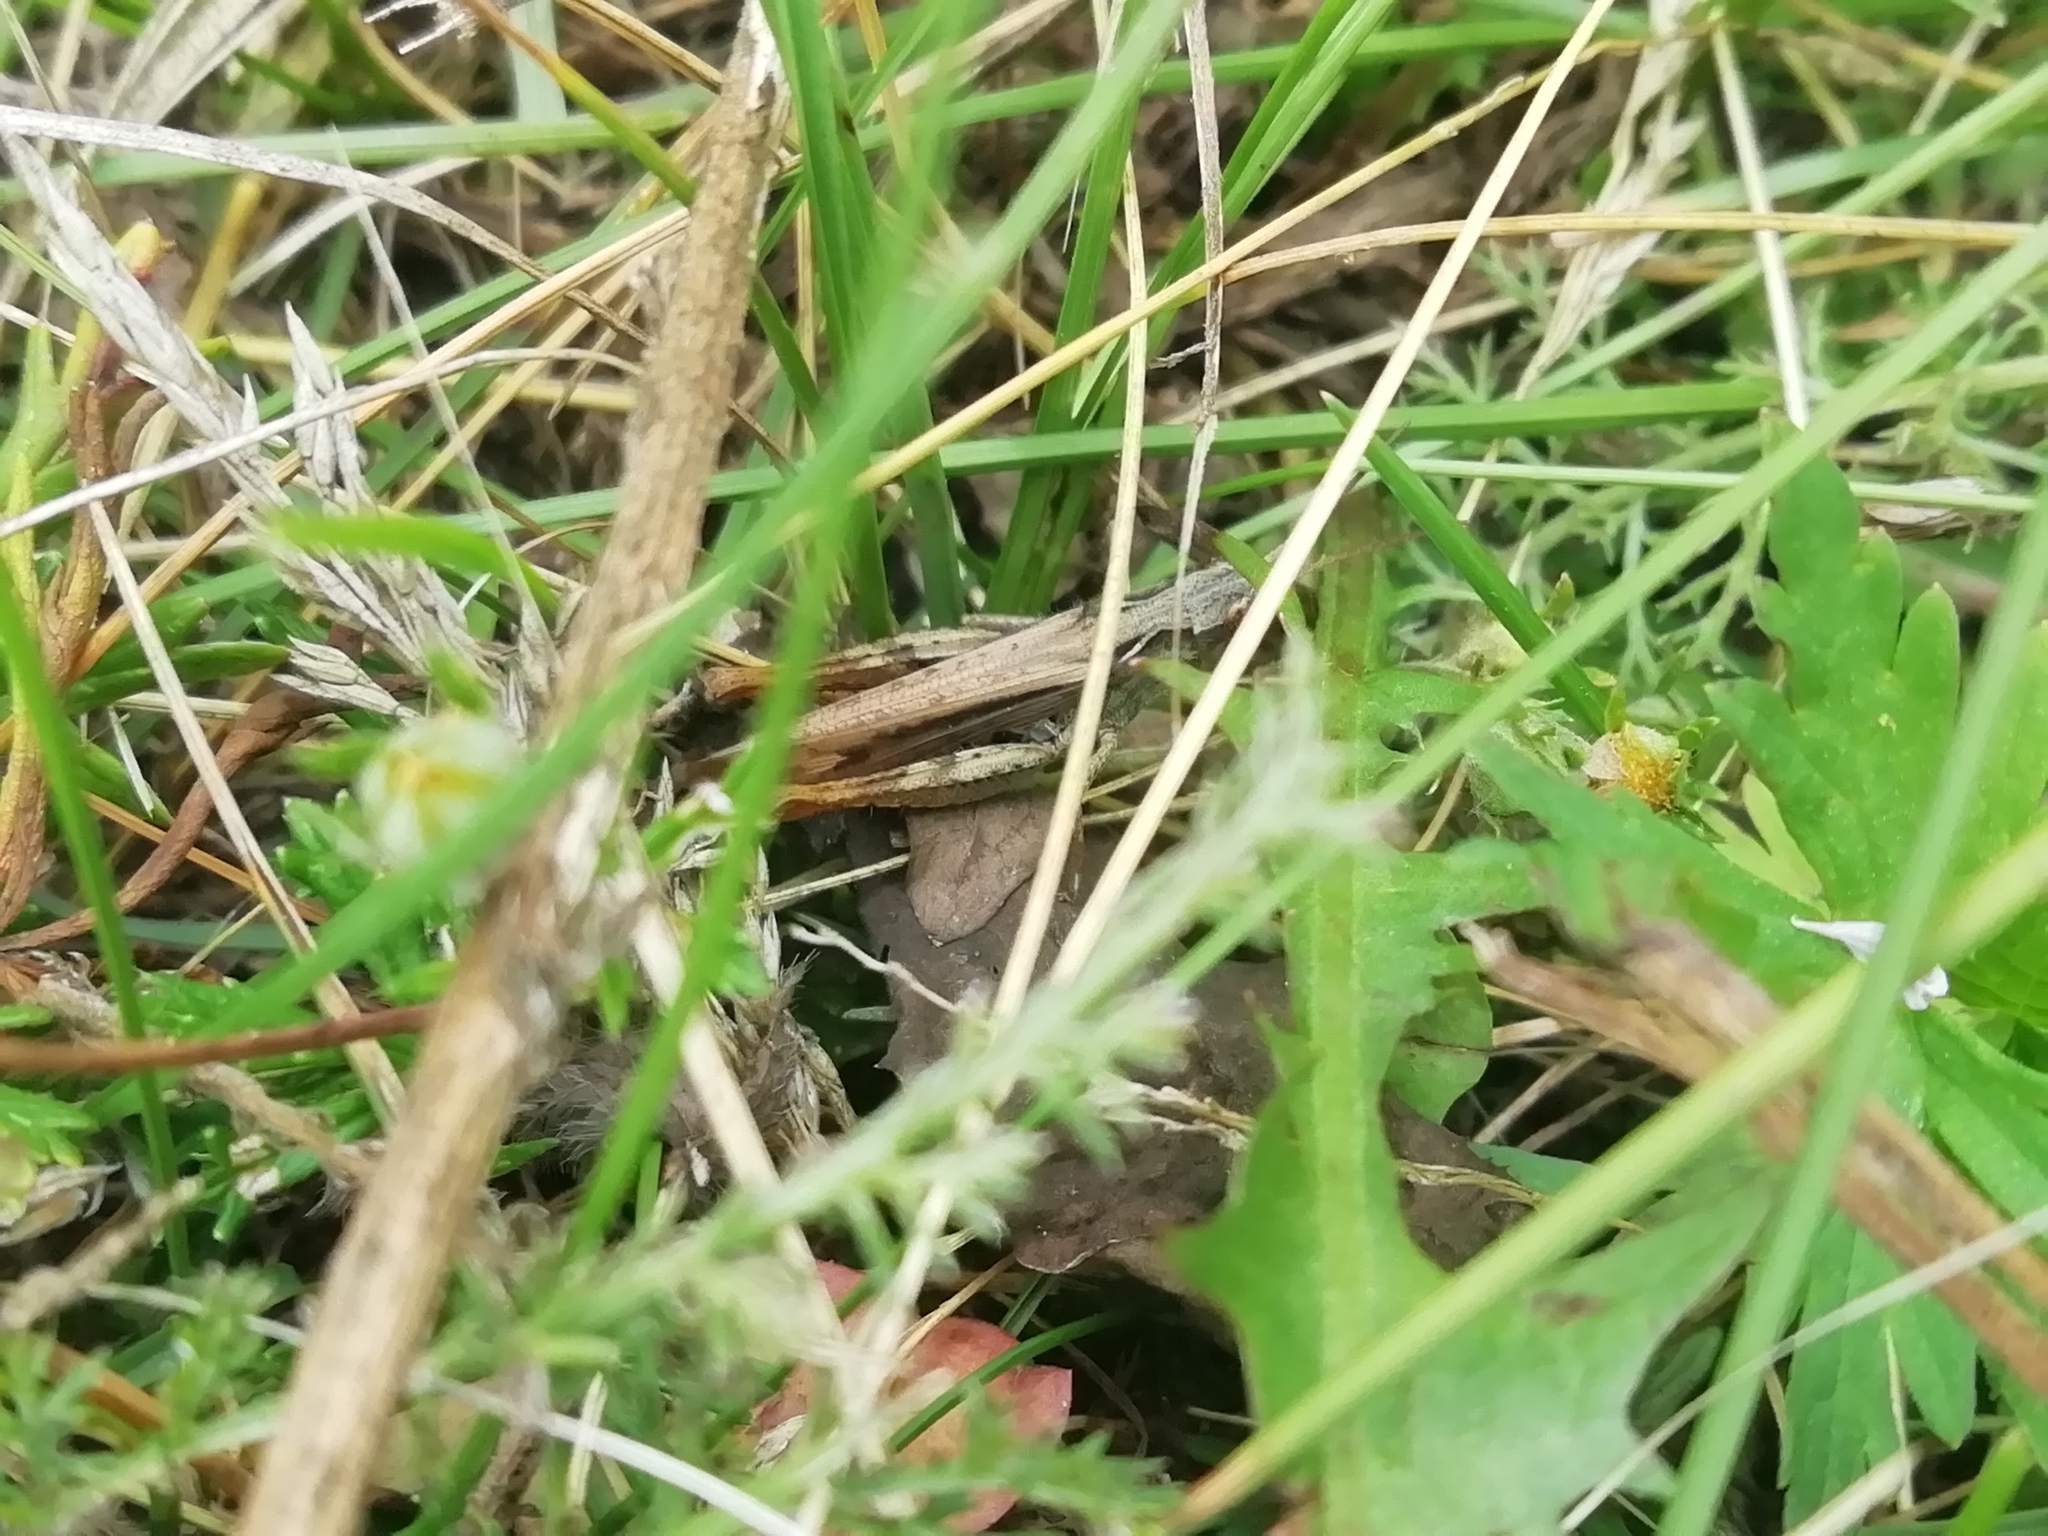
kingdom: Animalia
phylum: Arthropoda
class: Insecta
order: Orthoptera
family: Acrididae
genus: Chorthippus
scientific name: Chorthippus apricarius
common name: Upland field grasshopper
